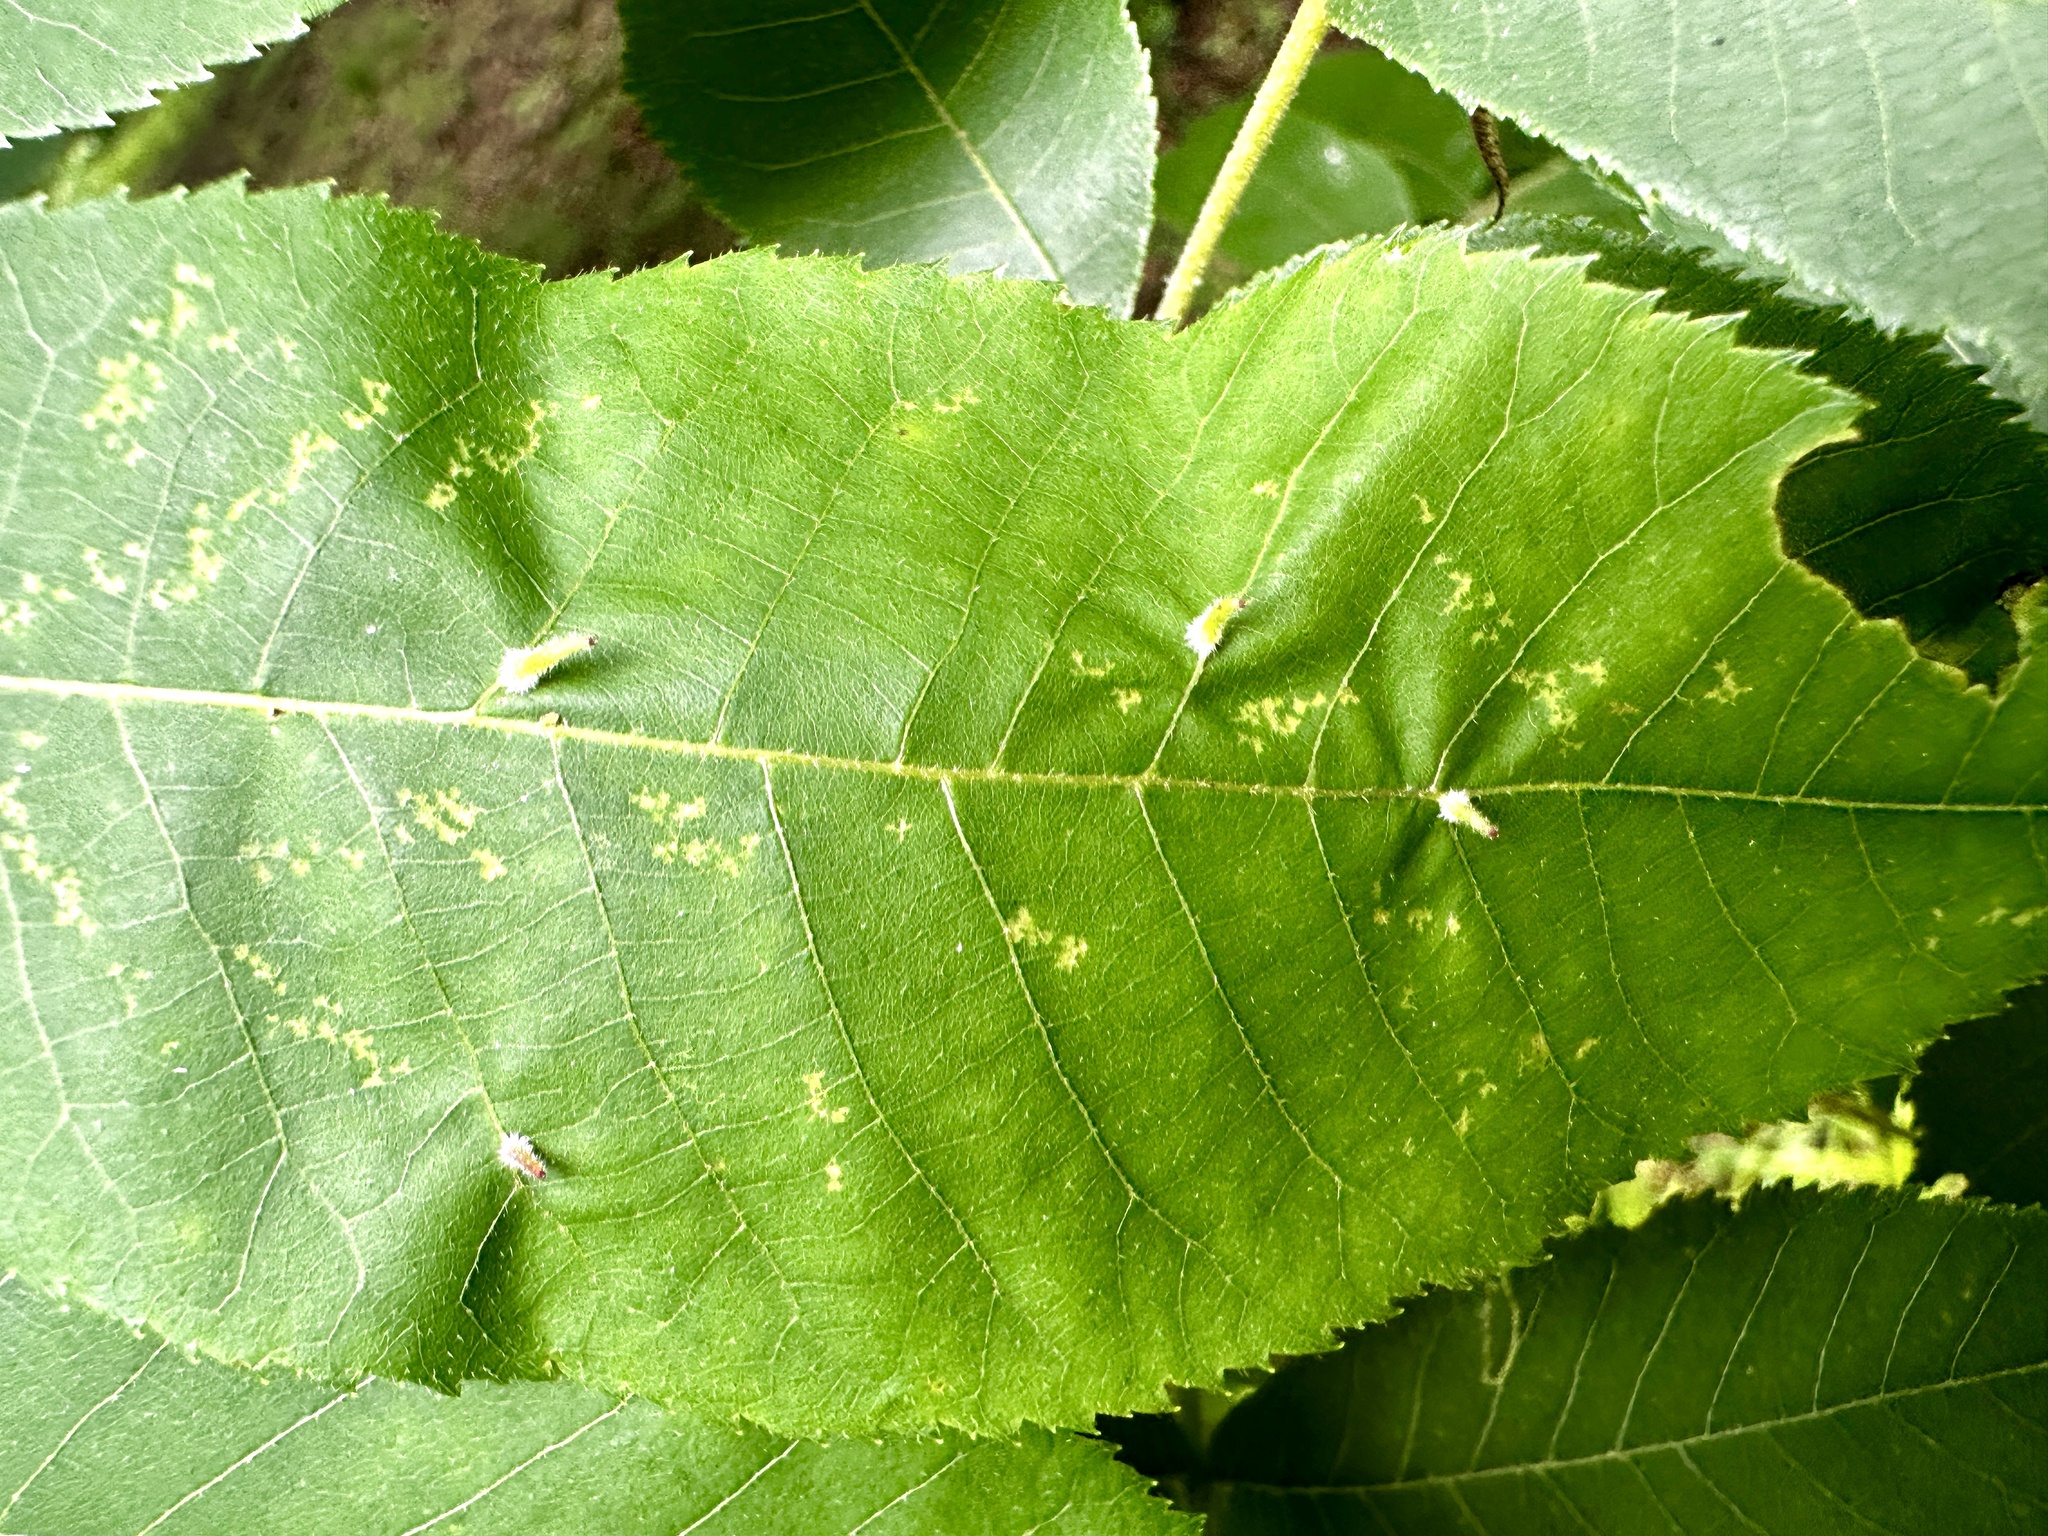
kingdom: Animalia
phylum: Arthropoda
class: Insecta
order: Diptera
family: Cecidomyiidae
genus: Caryomyia
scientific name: Caryomyia spinulosa
